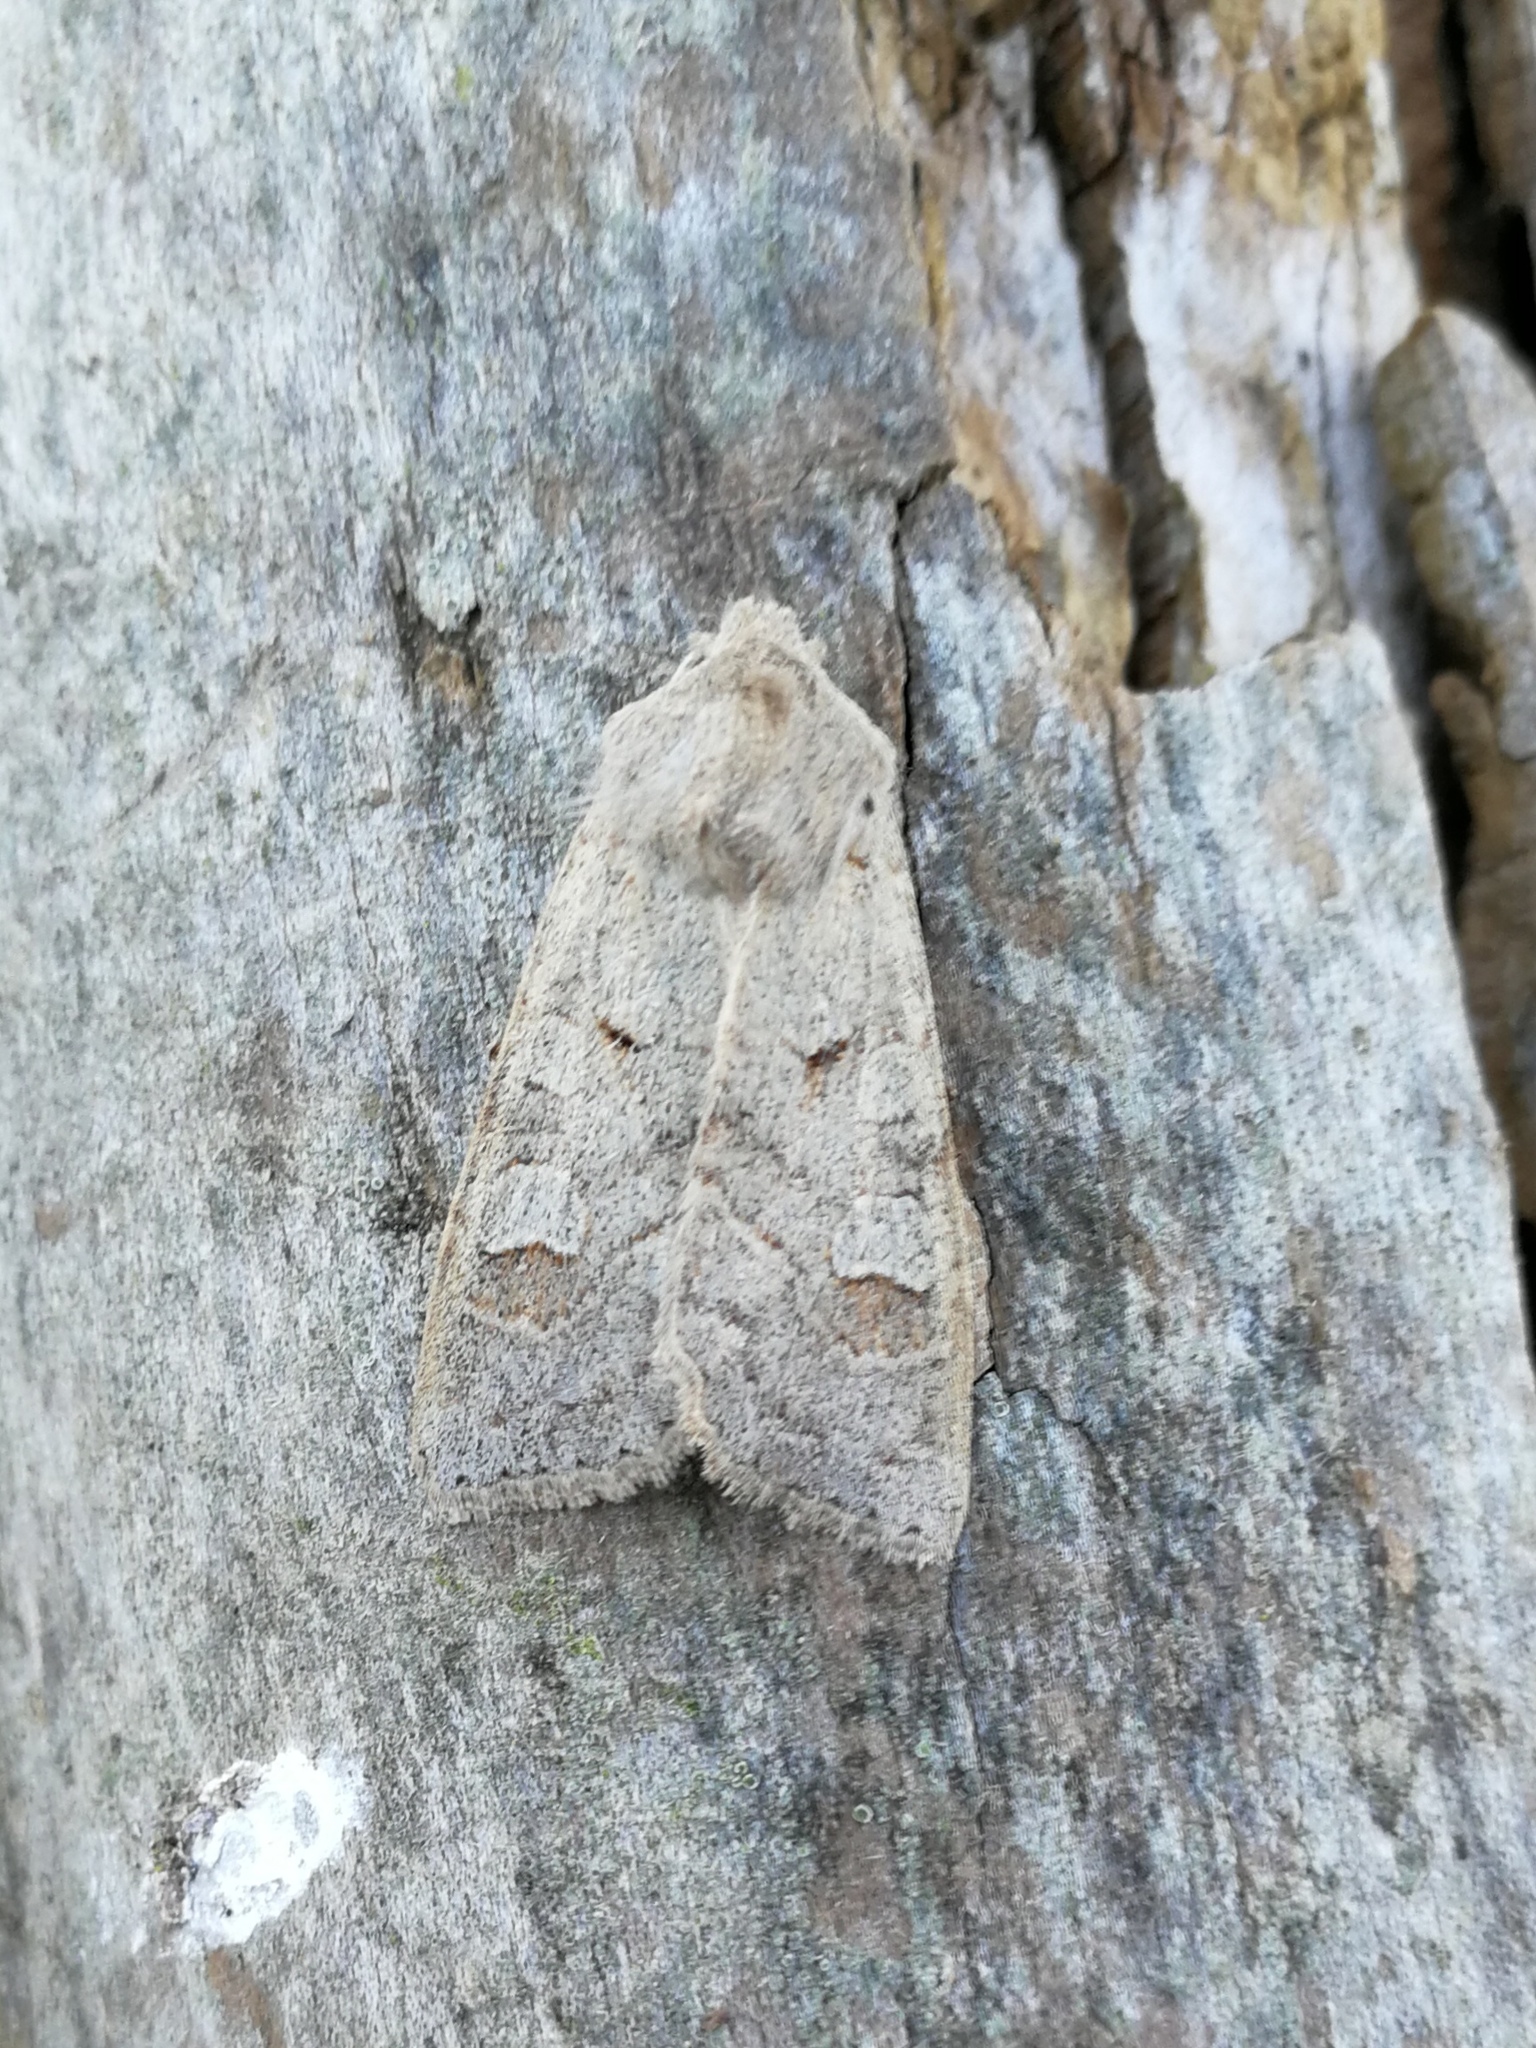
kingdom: Animalia
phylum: Arthropoda
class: Insecta
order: Lepidoptera
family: Noctuidae
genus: Ammoconia
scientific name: Ammoconia caecimacula
